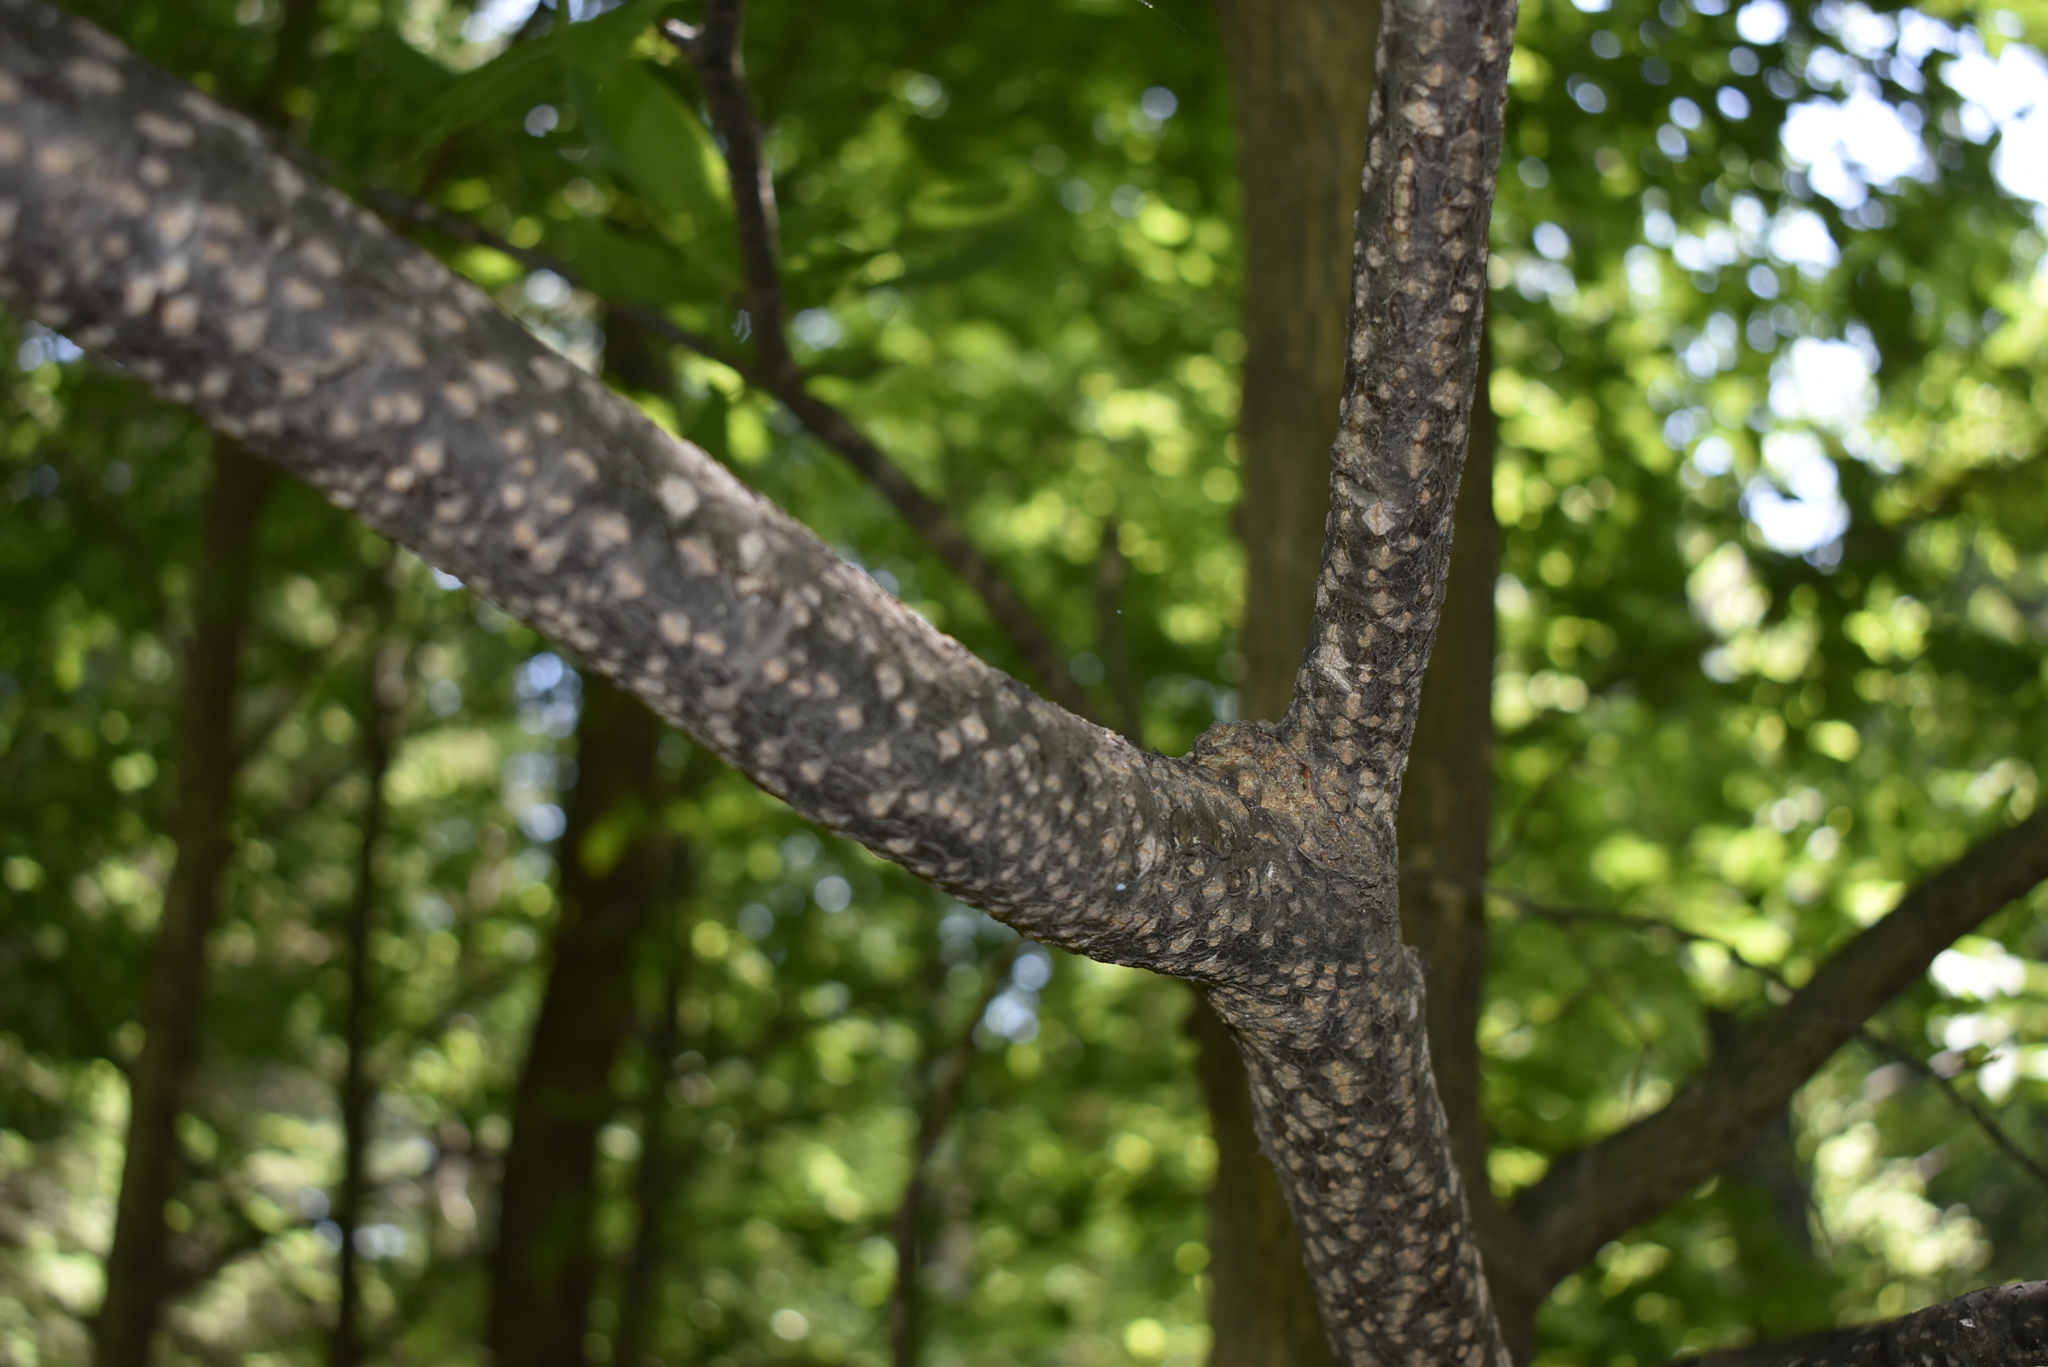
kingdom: Plantae
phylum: Tracheophyta
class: Magnoliopsida
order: Fagales
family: Betulaceae
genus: Carpinus
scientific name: Carpinus cordata
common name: Sawa hornbeam
